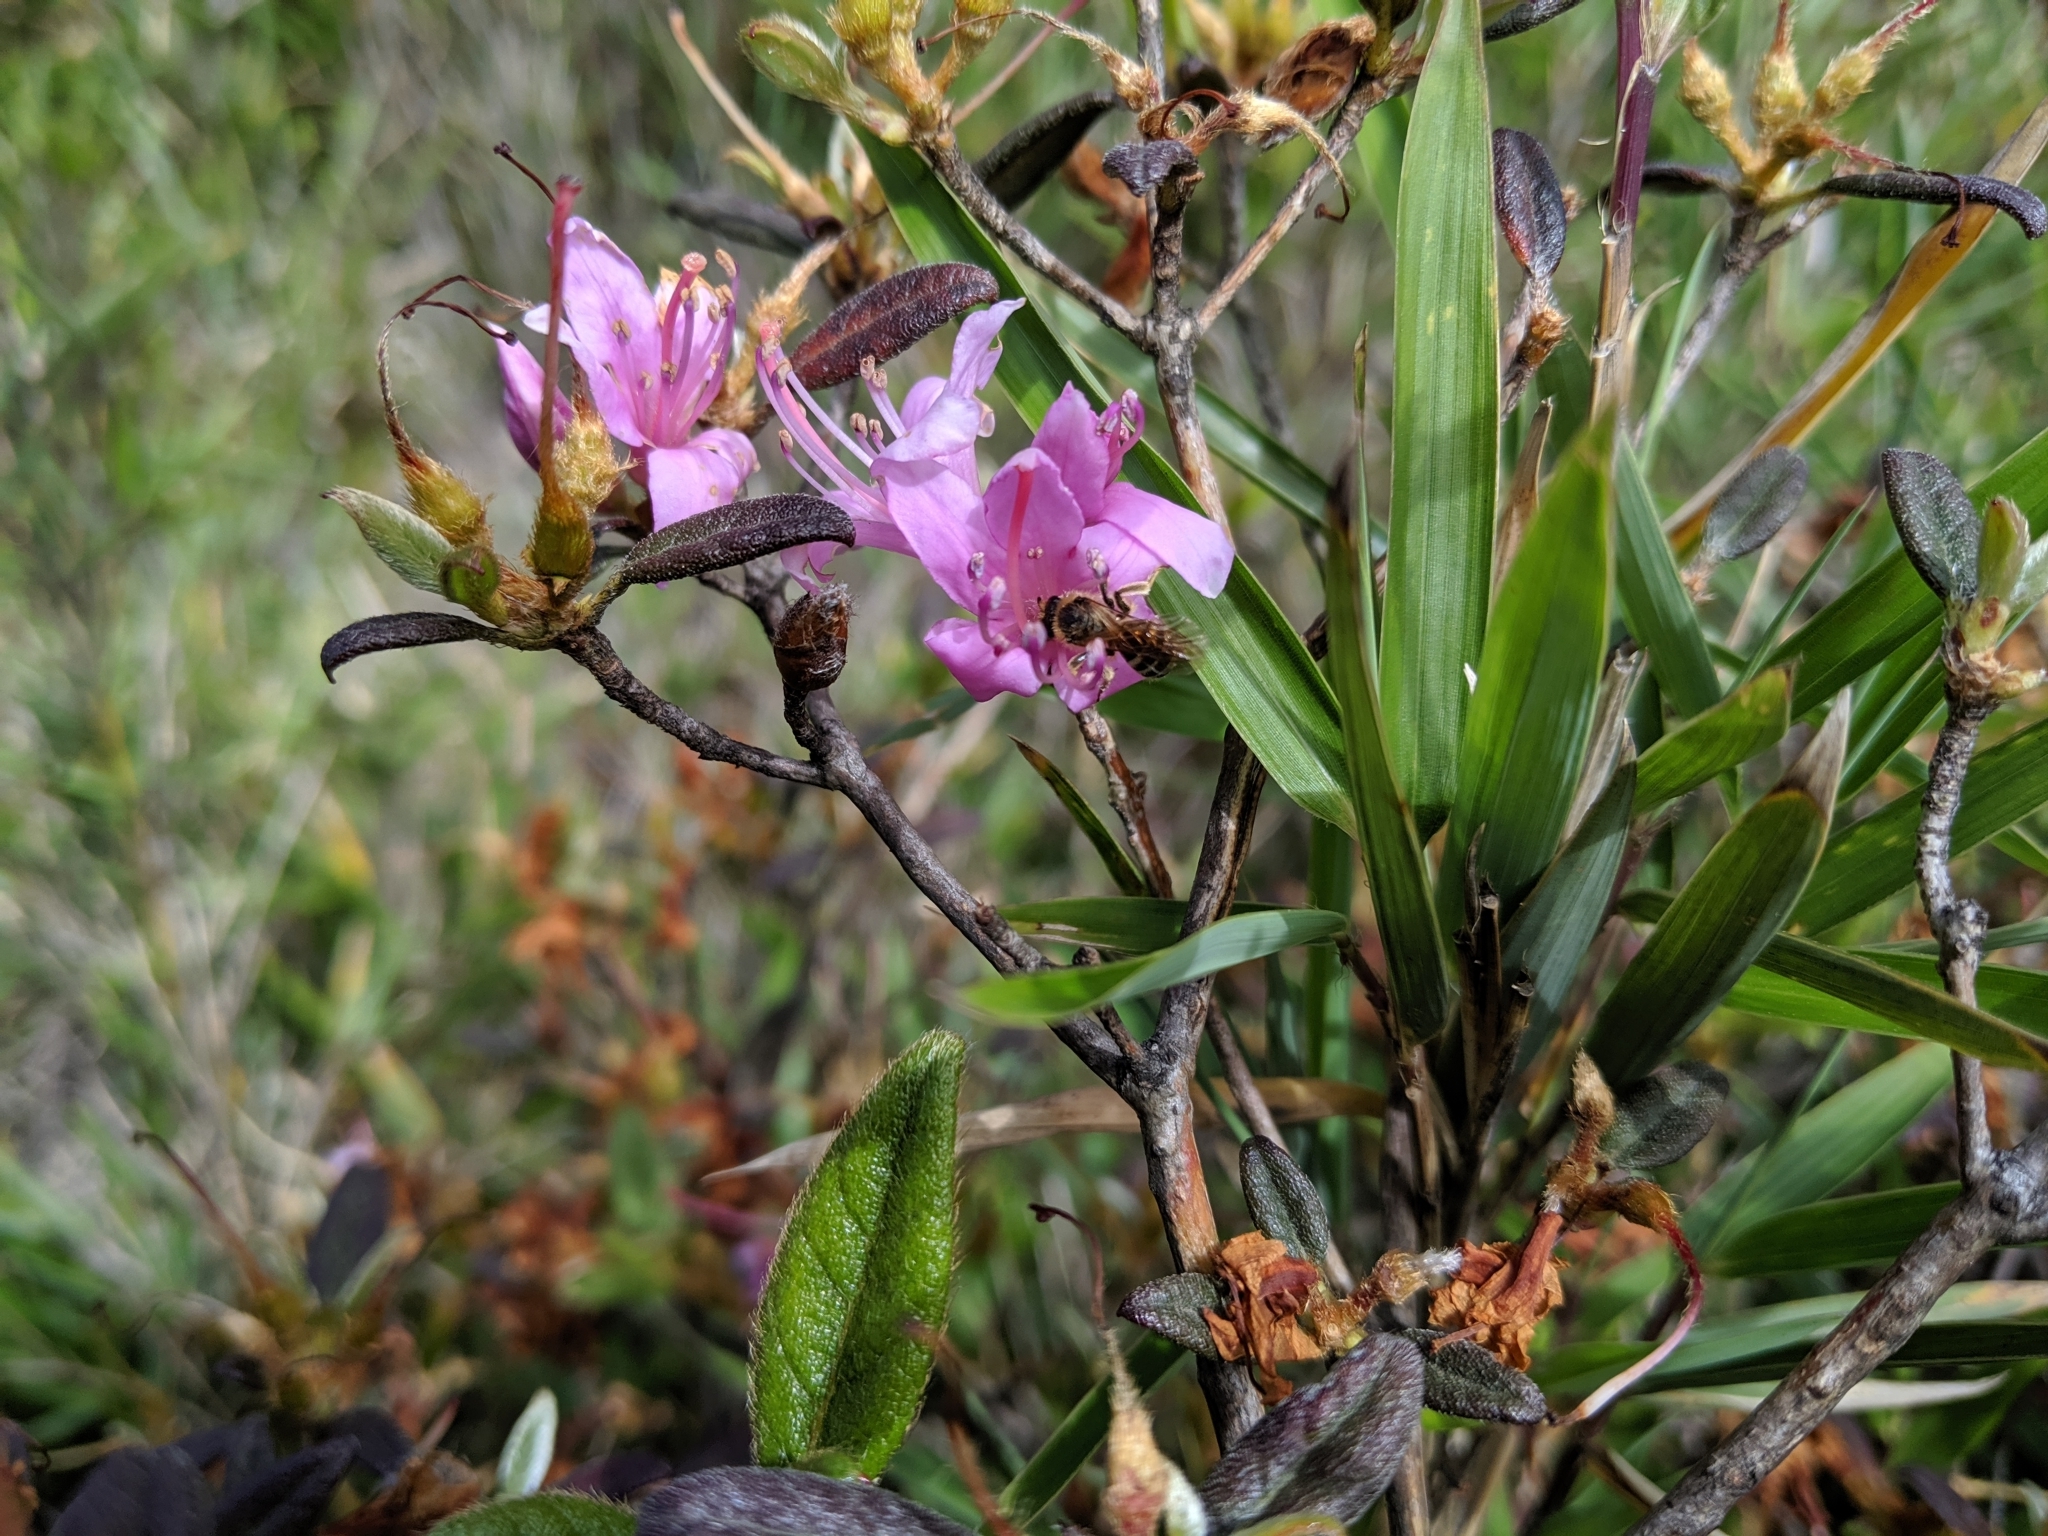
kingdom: Plantae
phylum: Tracheophyta
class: Magnoliopsida
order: Ericales
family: Ericaceae
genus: Rhododendron
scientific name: Rhododendron taiwanalpinum
